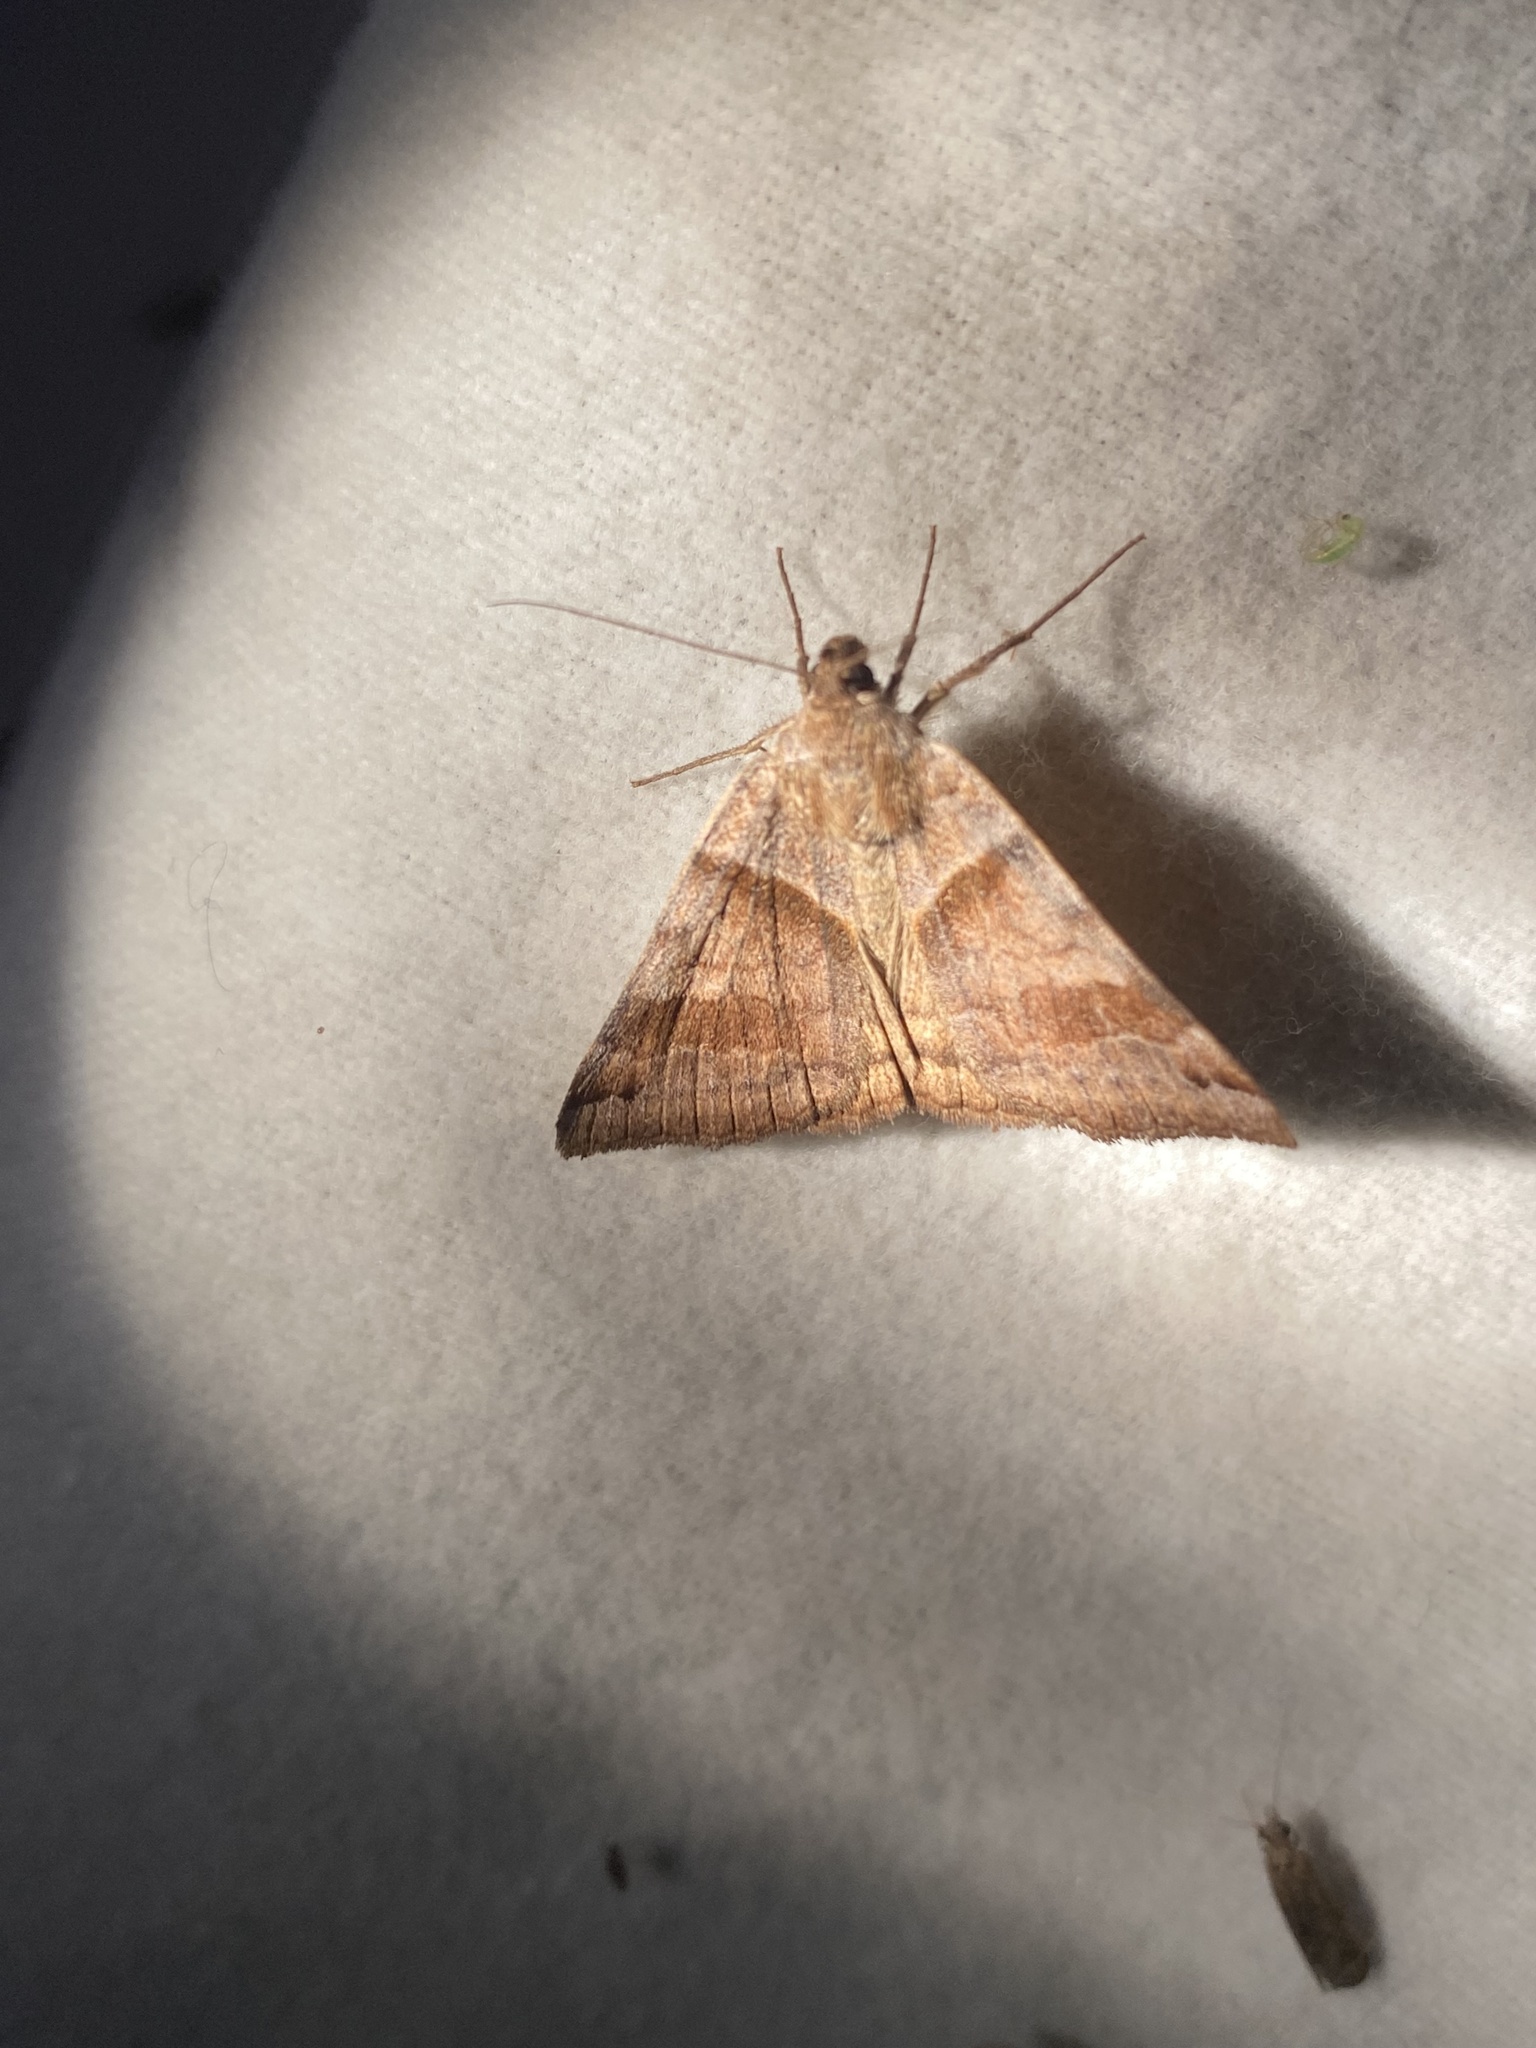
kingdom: Animalia
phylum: Arthropoda
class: Insecta
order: Lepidoptera
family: Erebidae
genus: Caenurgina
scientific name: Caenurgina erechtea
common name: Forage looper moth
